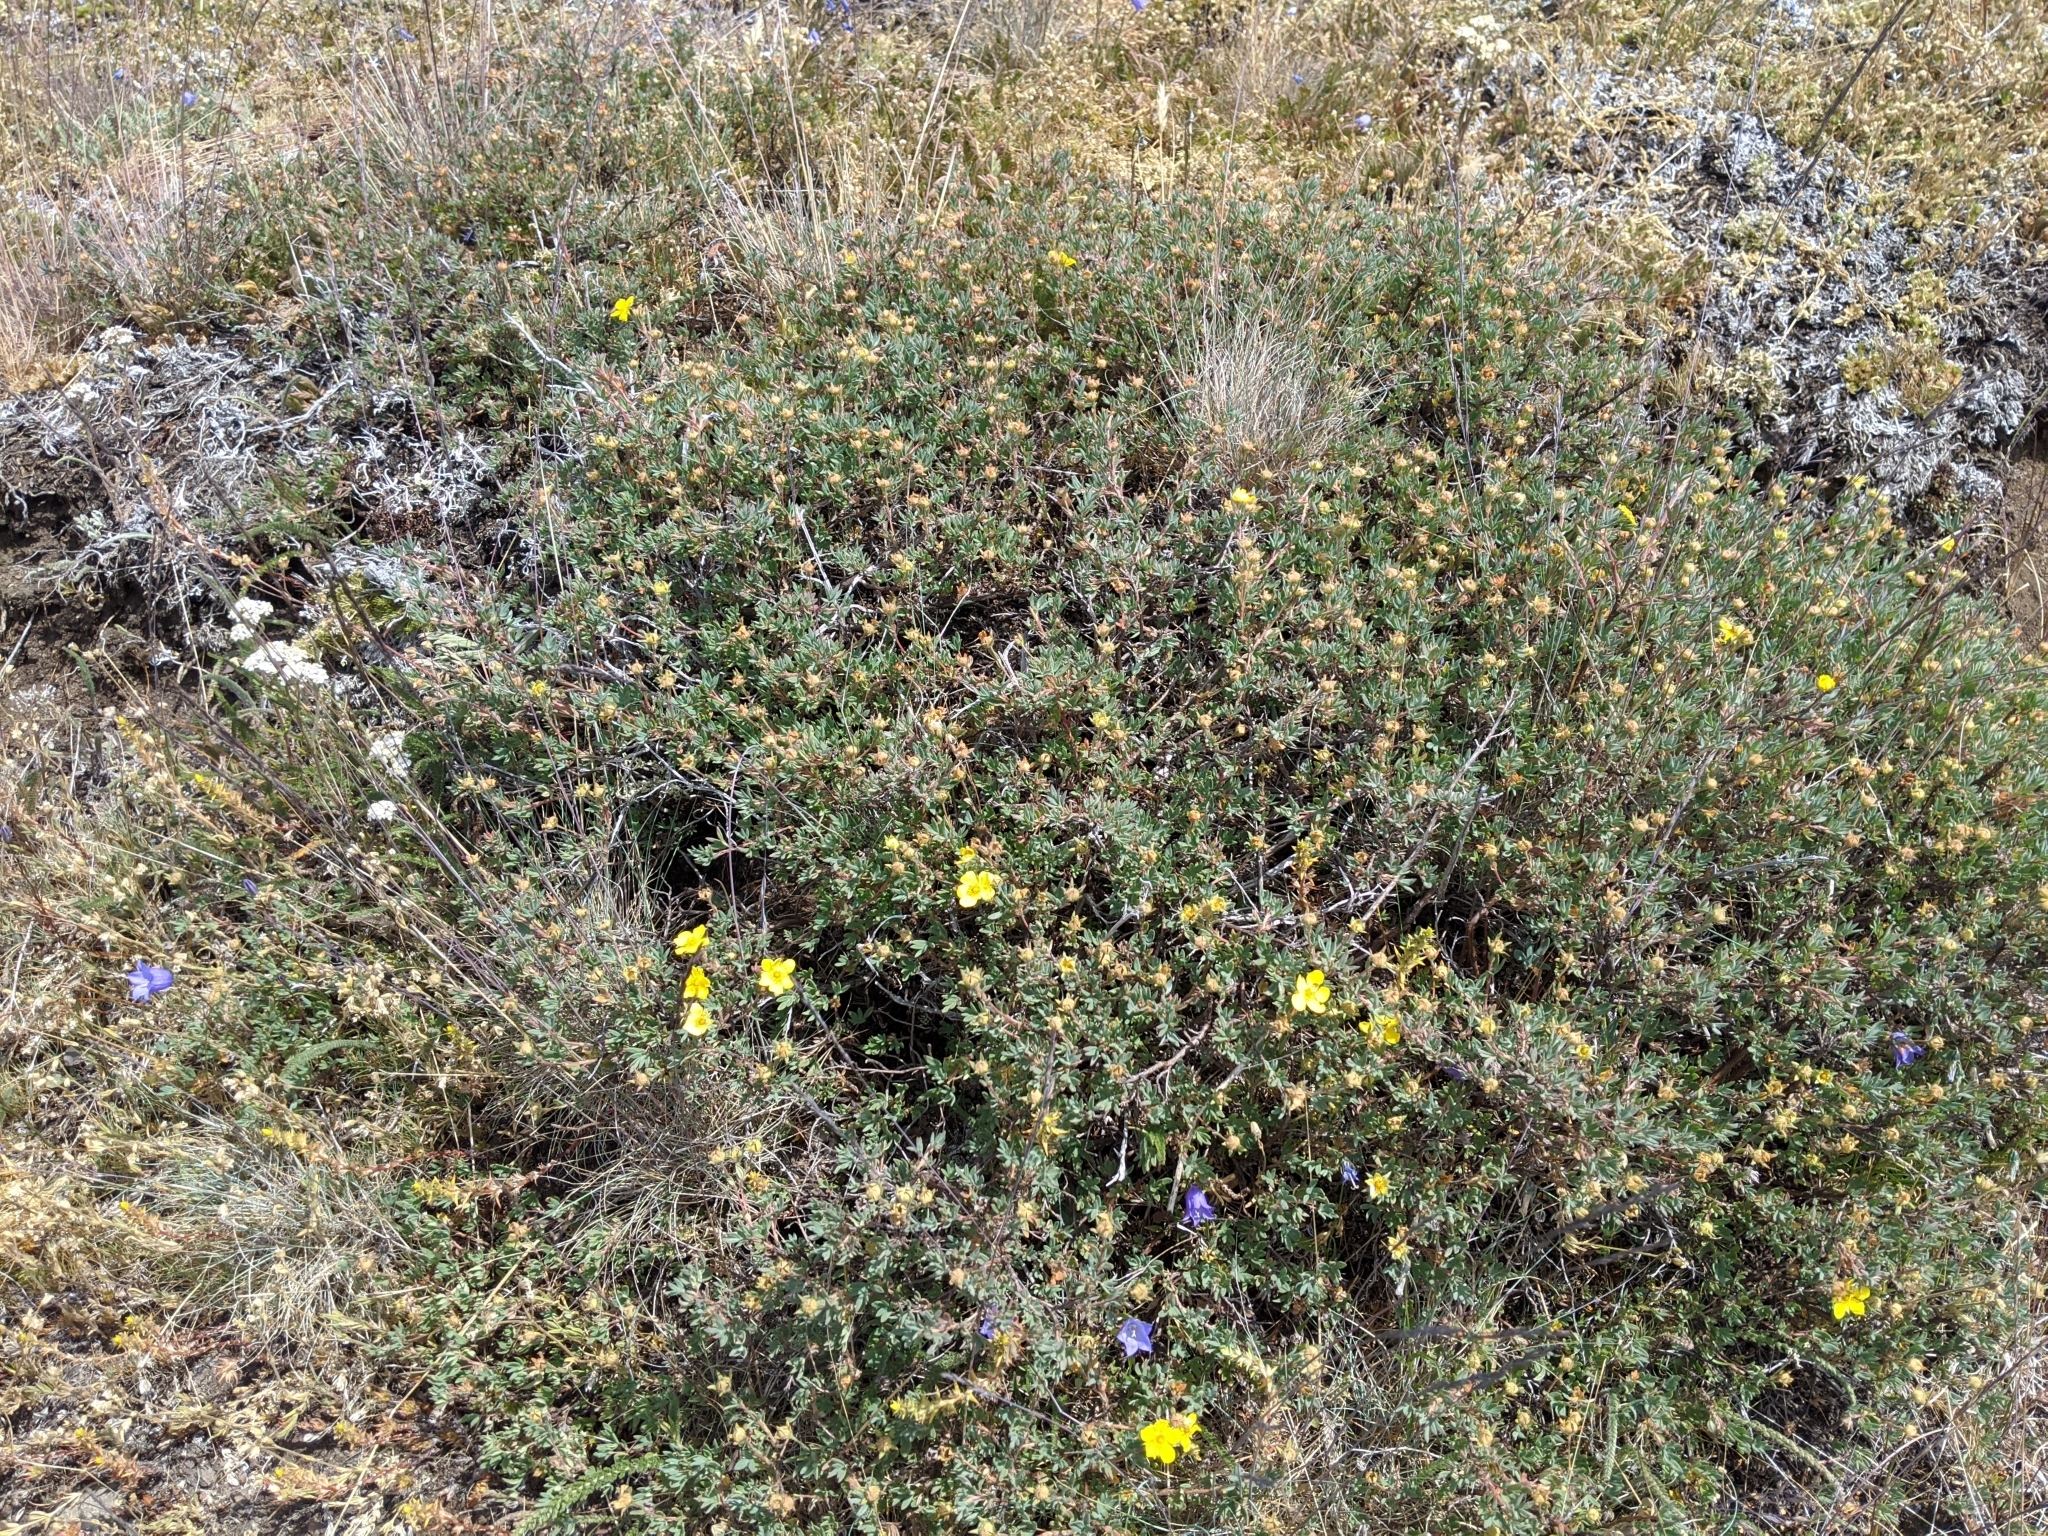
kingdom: Plantae
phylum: Tracheophyta
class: Magnoliopsida
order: Rosales
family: Rosaceae
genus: Dasiphora
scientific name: Dasiphora fruticosa
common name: Shrubby cinquefoil
